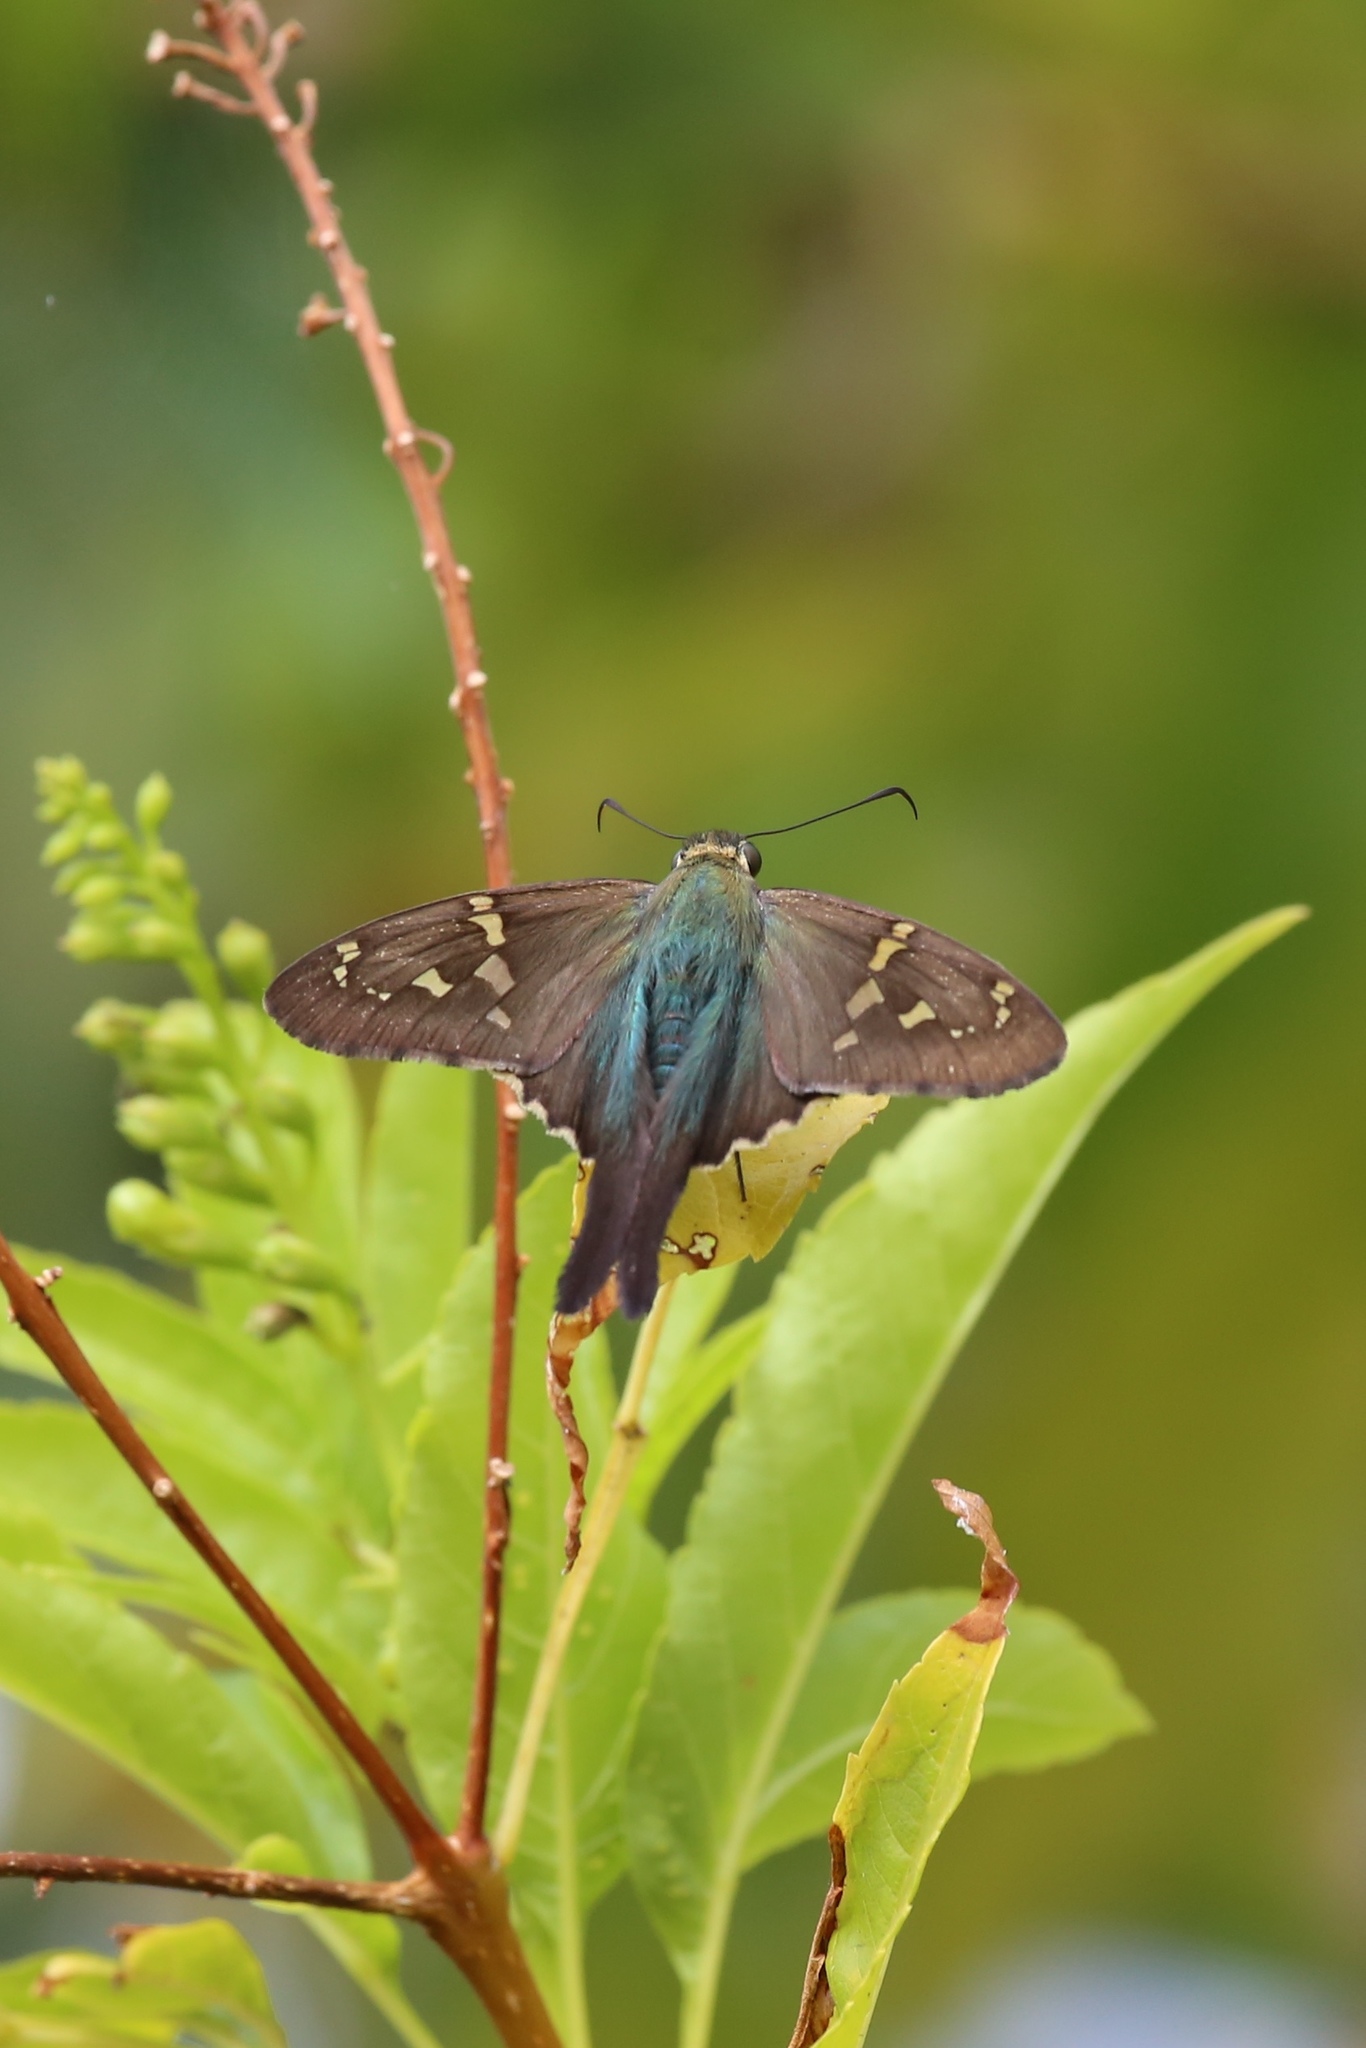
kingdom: Animalia
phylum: Arthropoda
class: Insecta
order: Lepidoptera
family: Hesperiidae
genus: Urbanus
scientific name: Urbanus proteus
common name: Long-tailed skipper
